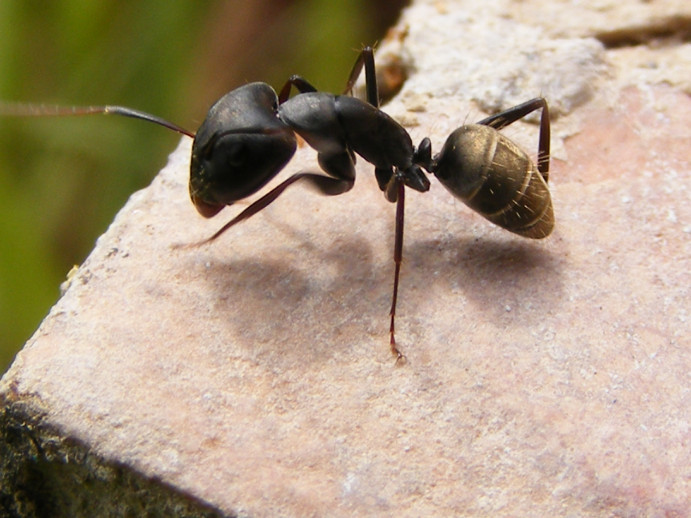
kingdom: Animalia
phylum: Arthropoda
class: Insecta
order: Hymenoptera
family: Formicidae
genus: Camponotus
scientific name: Camponotus cinctellus
